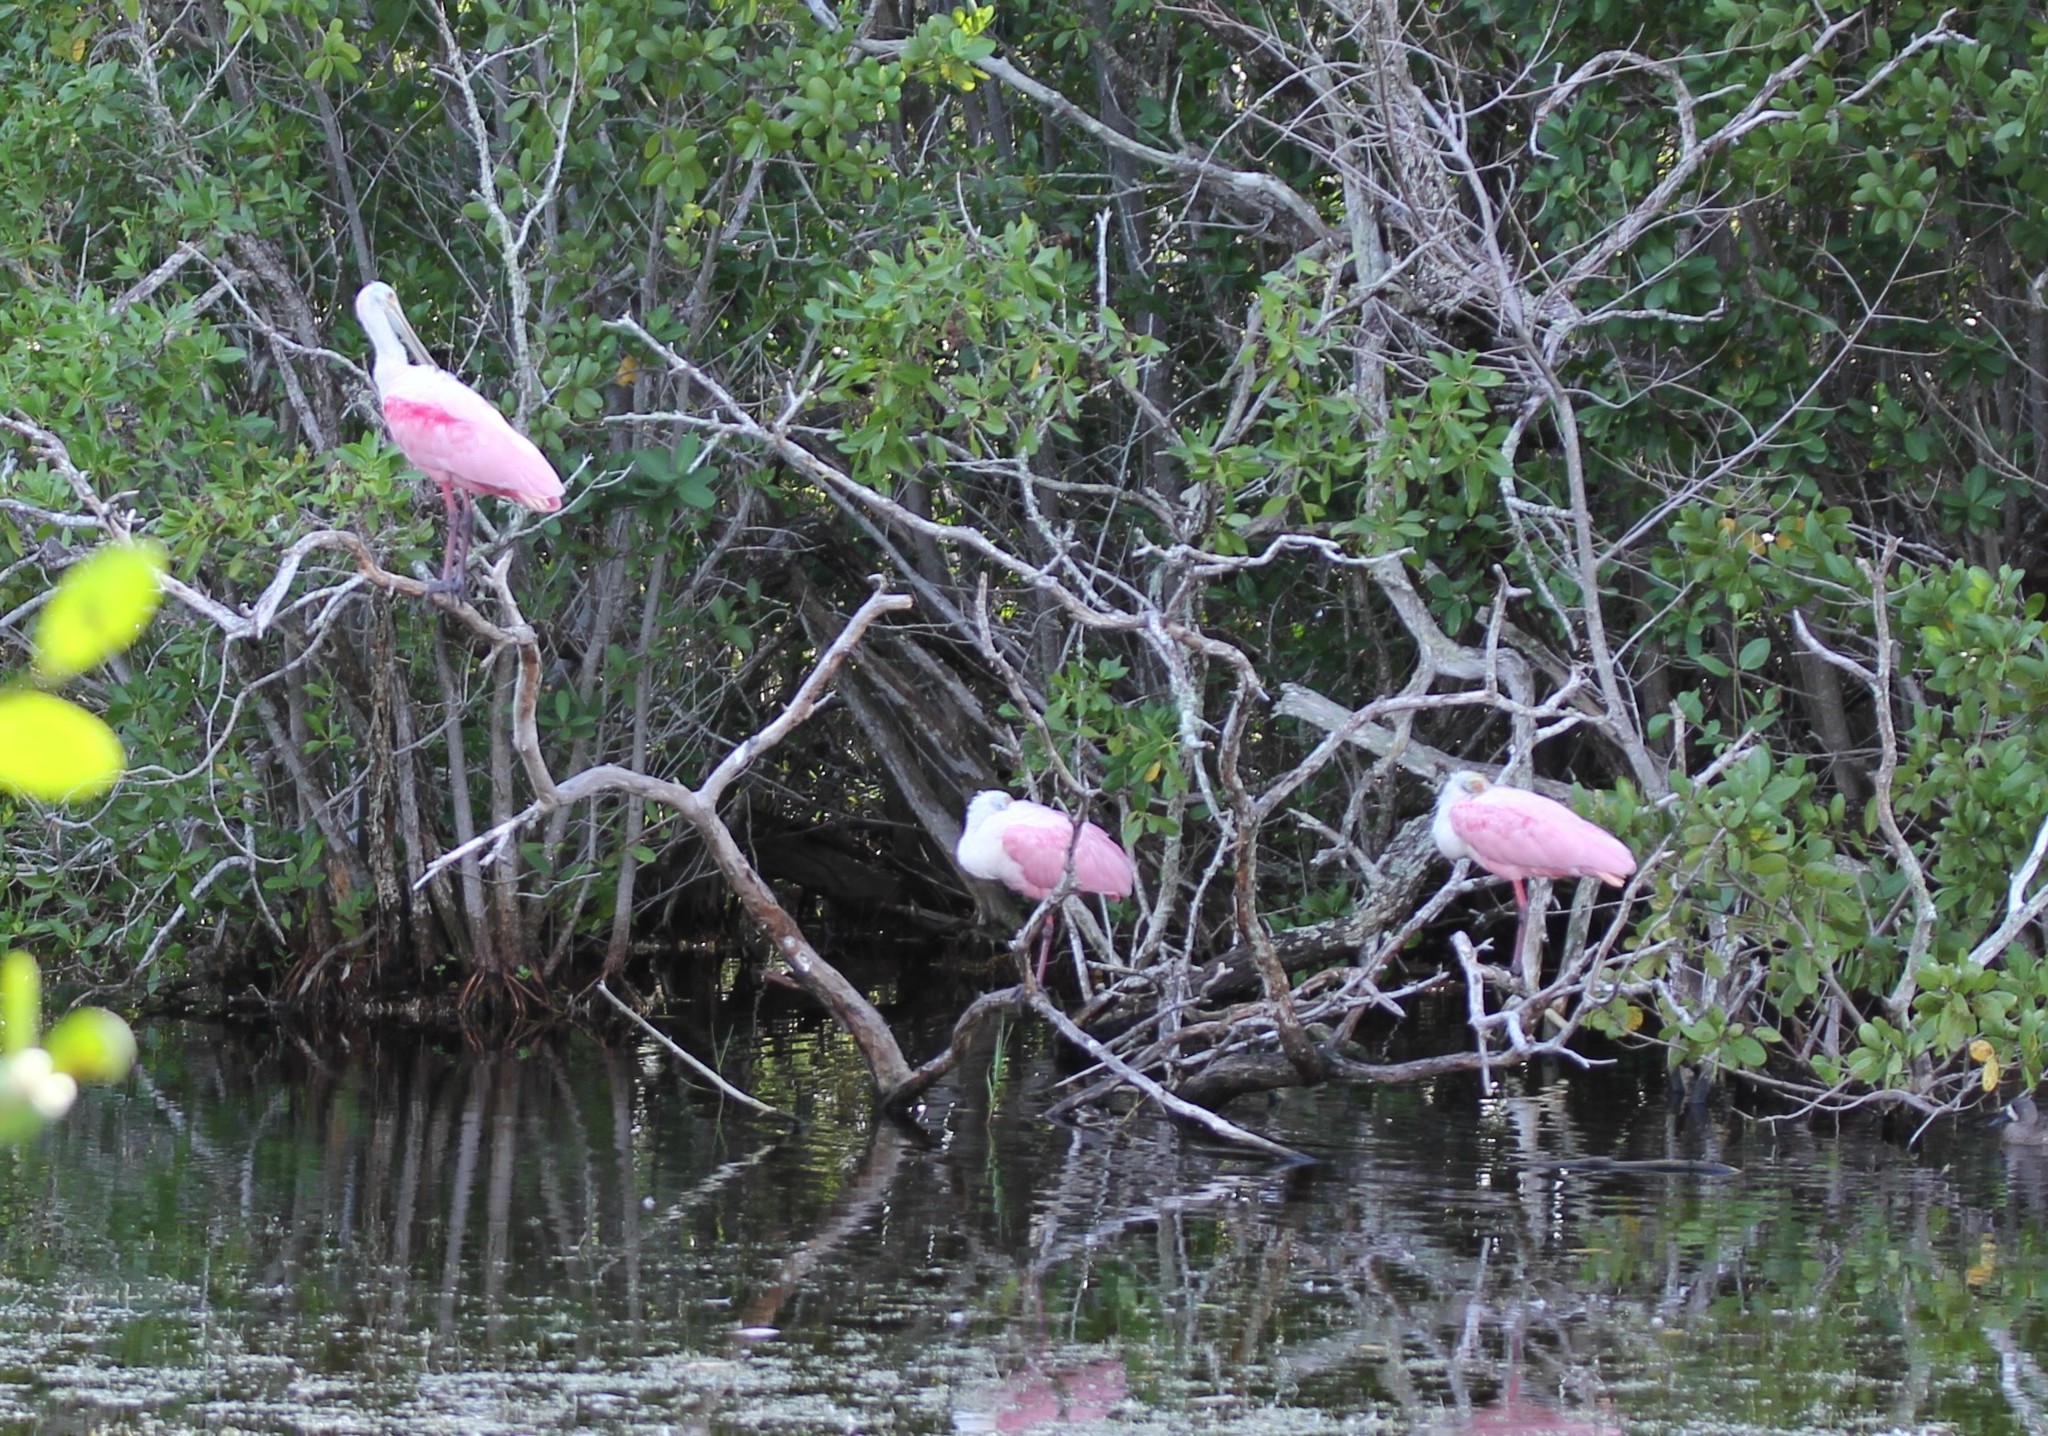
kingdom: Animalia
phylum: Chordata
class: Aves
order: Pelecaniformes
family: Threskiornithidae
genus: Platalea
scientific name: Platalea ajaja
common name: Roseate spoonbill
